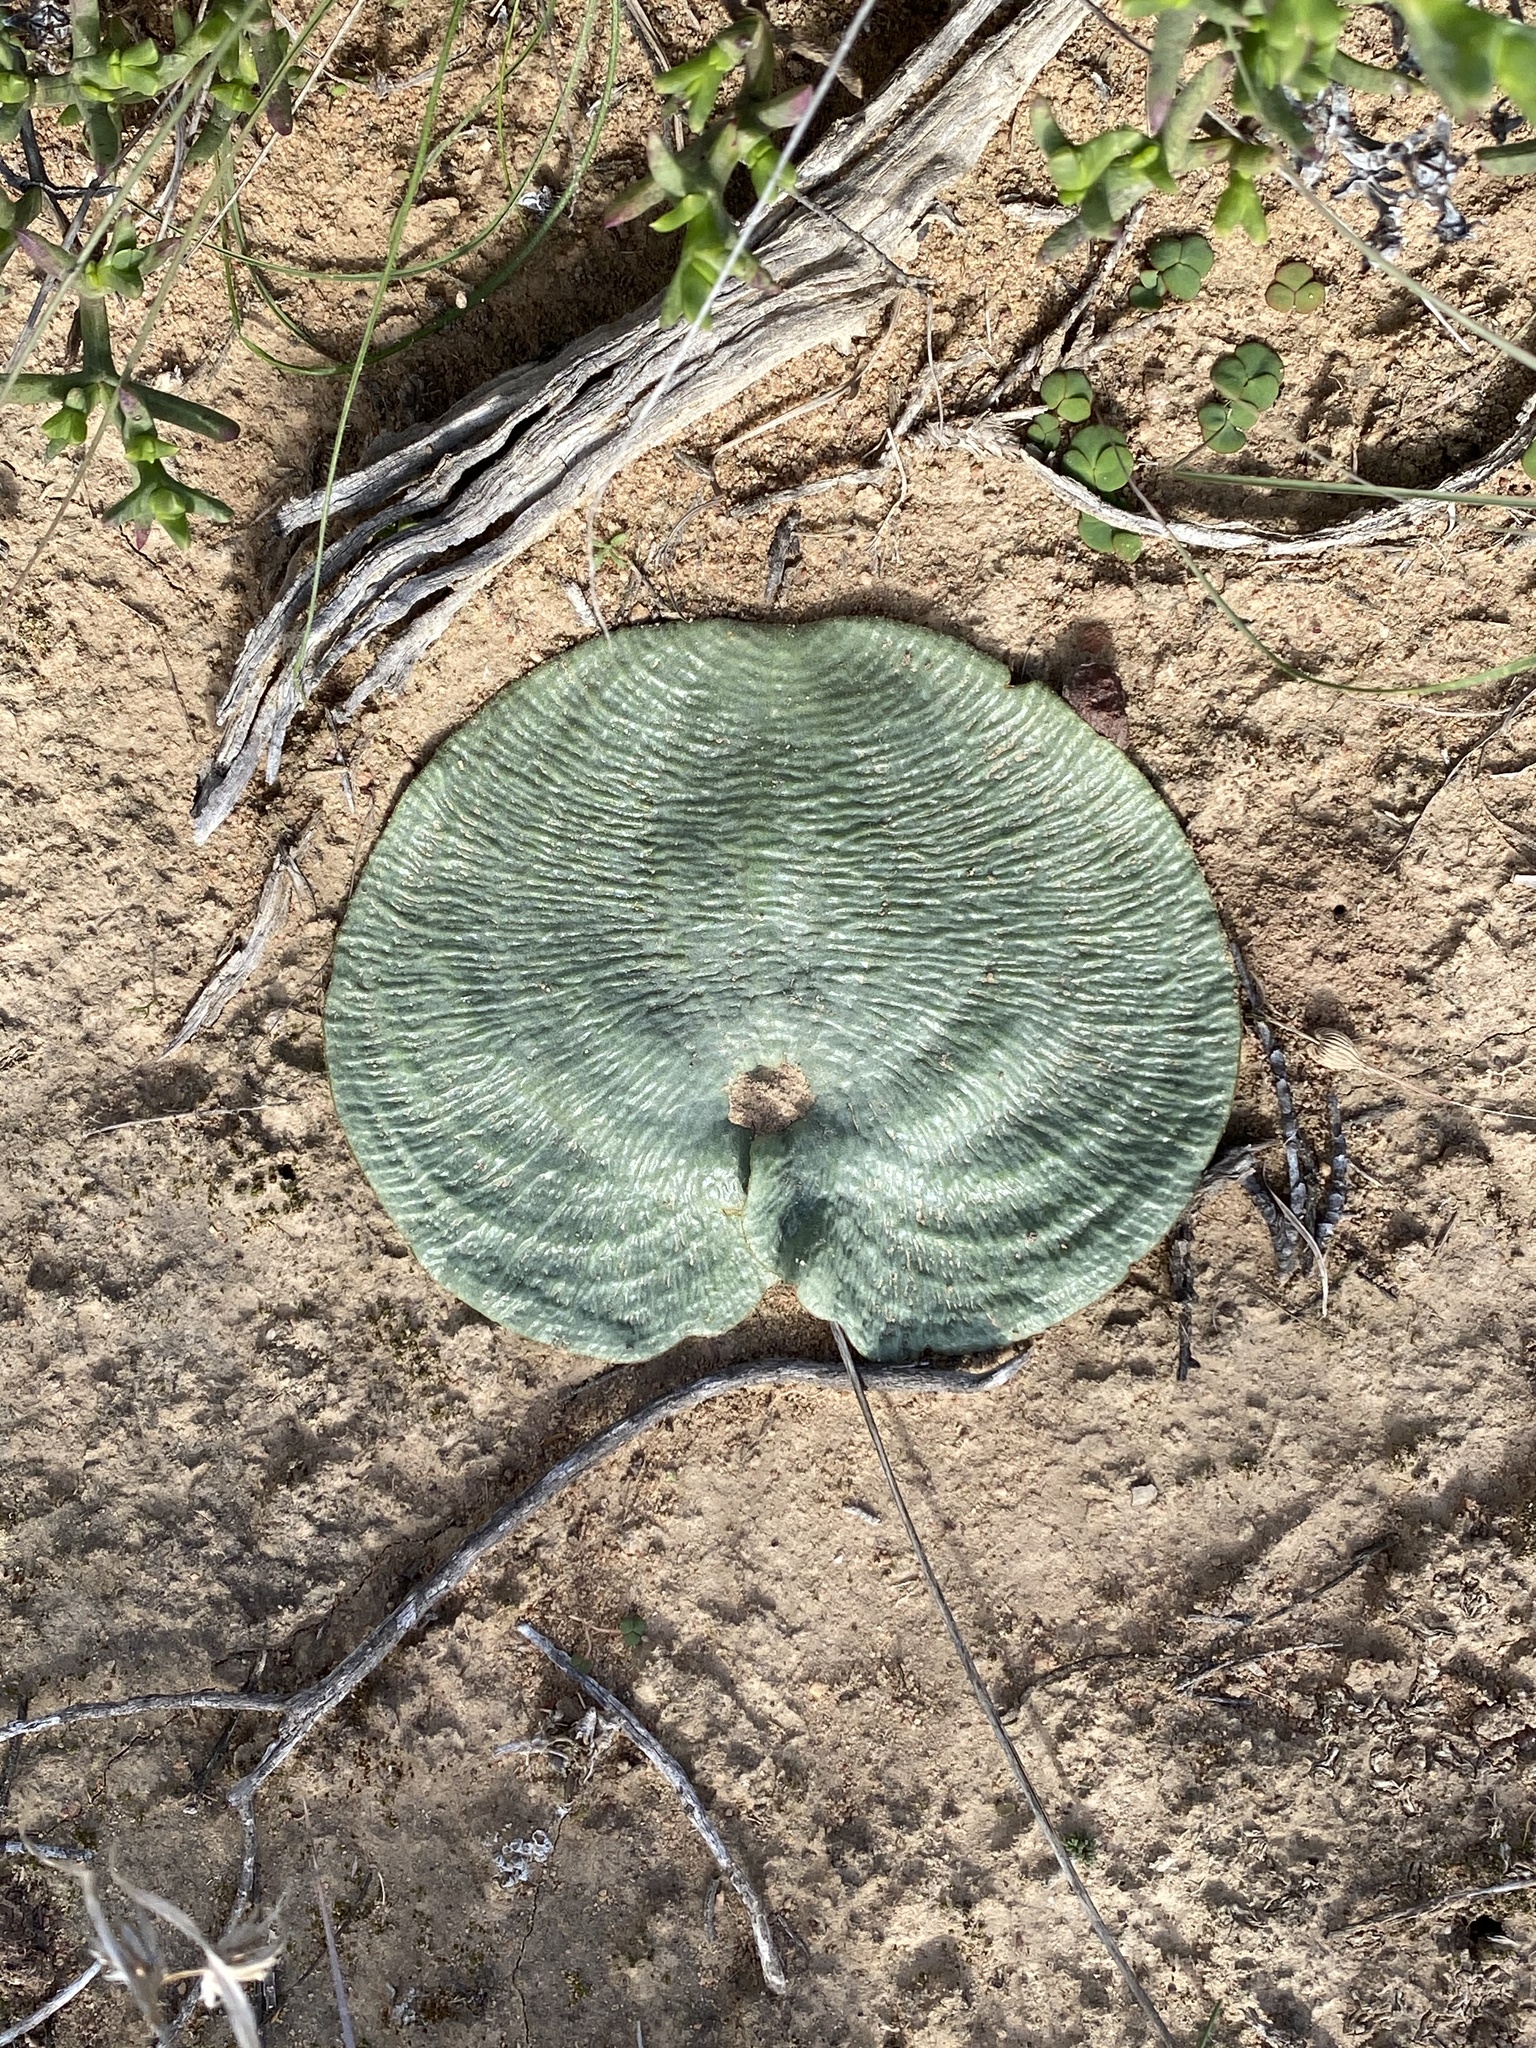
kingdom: Plantae
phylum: Tracheophyta
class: Liliopsida
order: Asparagales
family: Asparagaceae
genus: Eriospermum
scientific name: Eriospermum zeyheri
